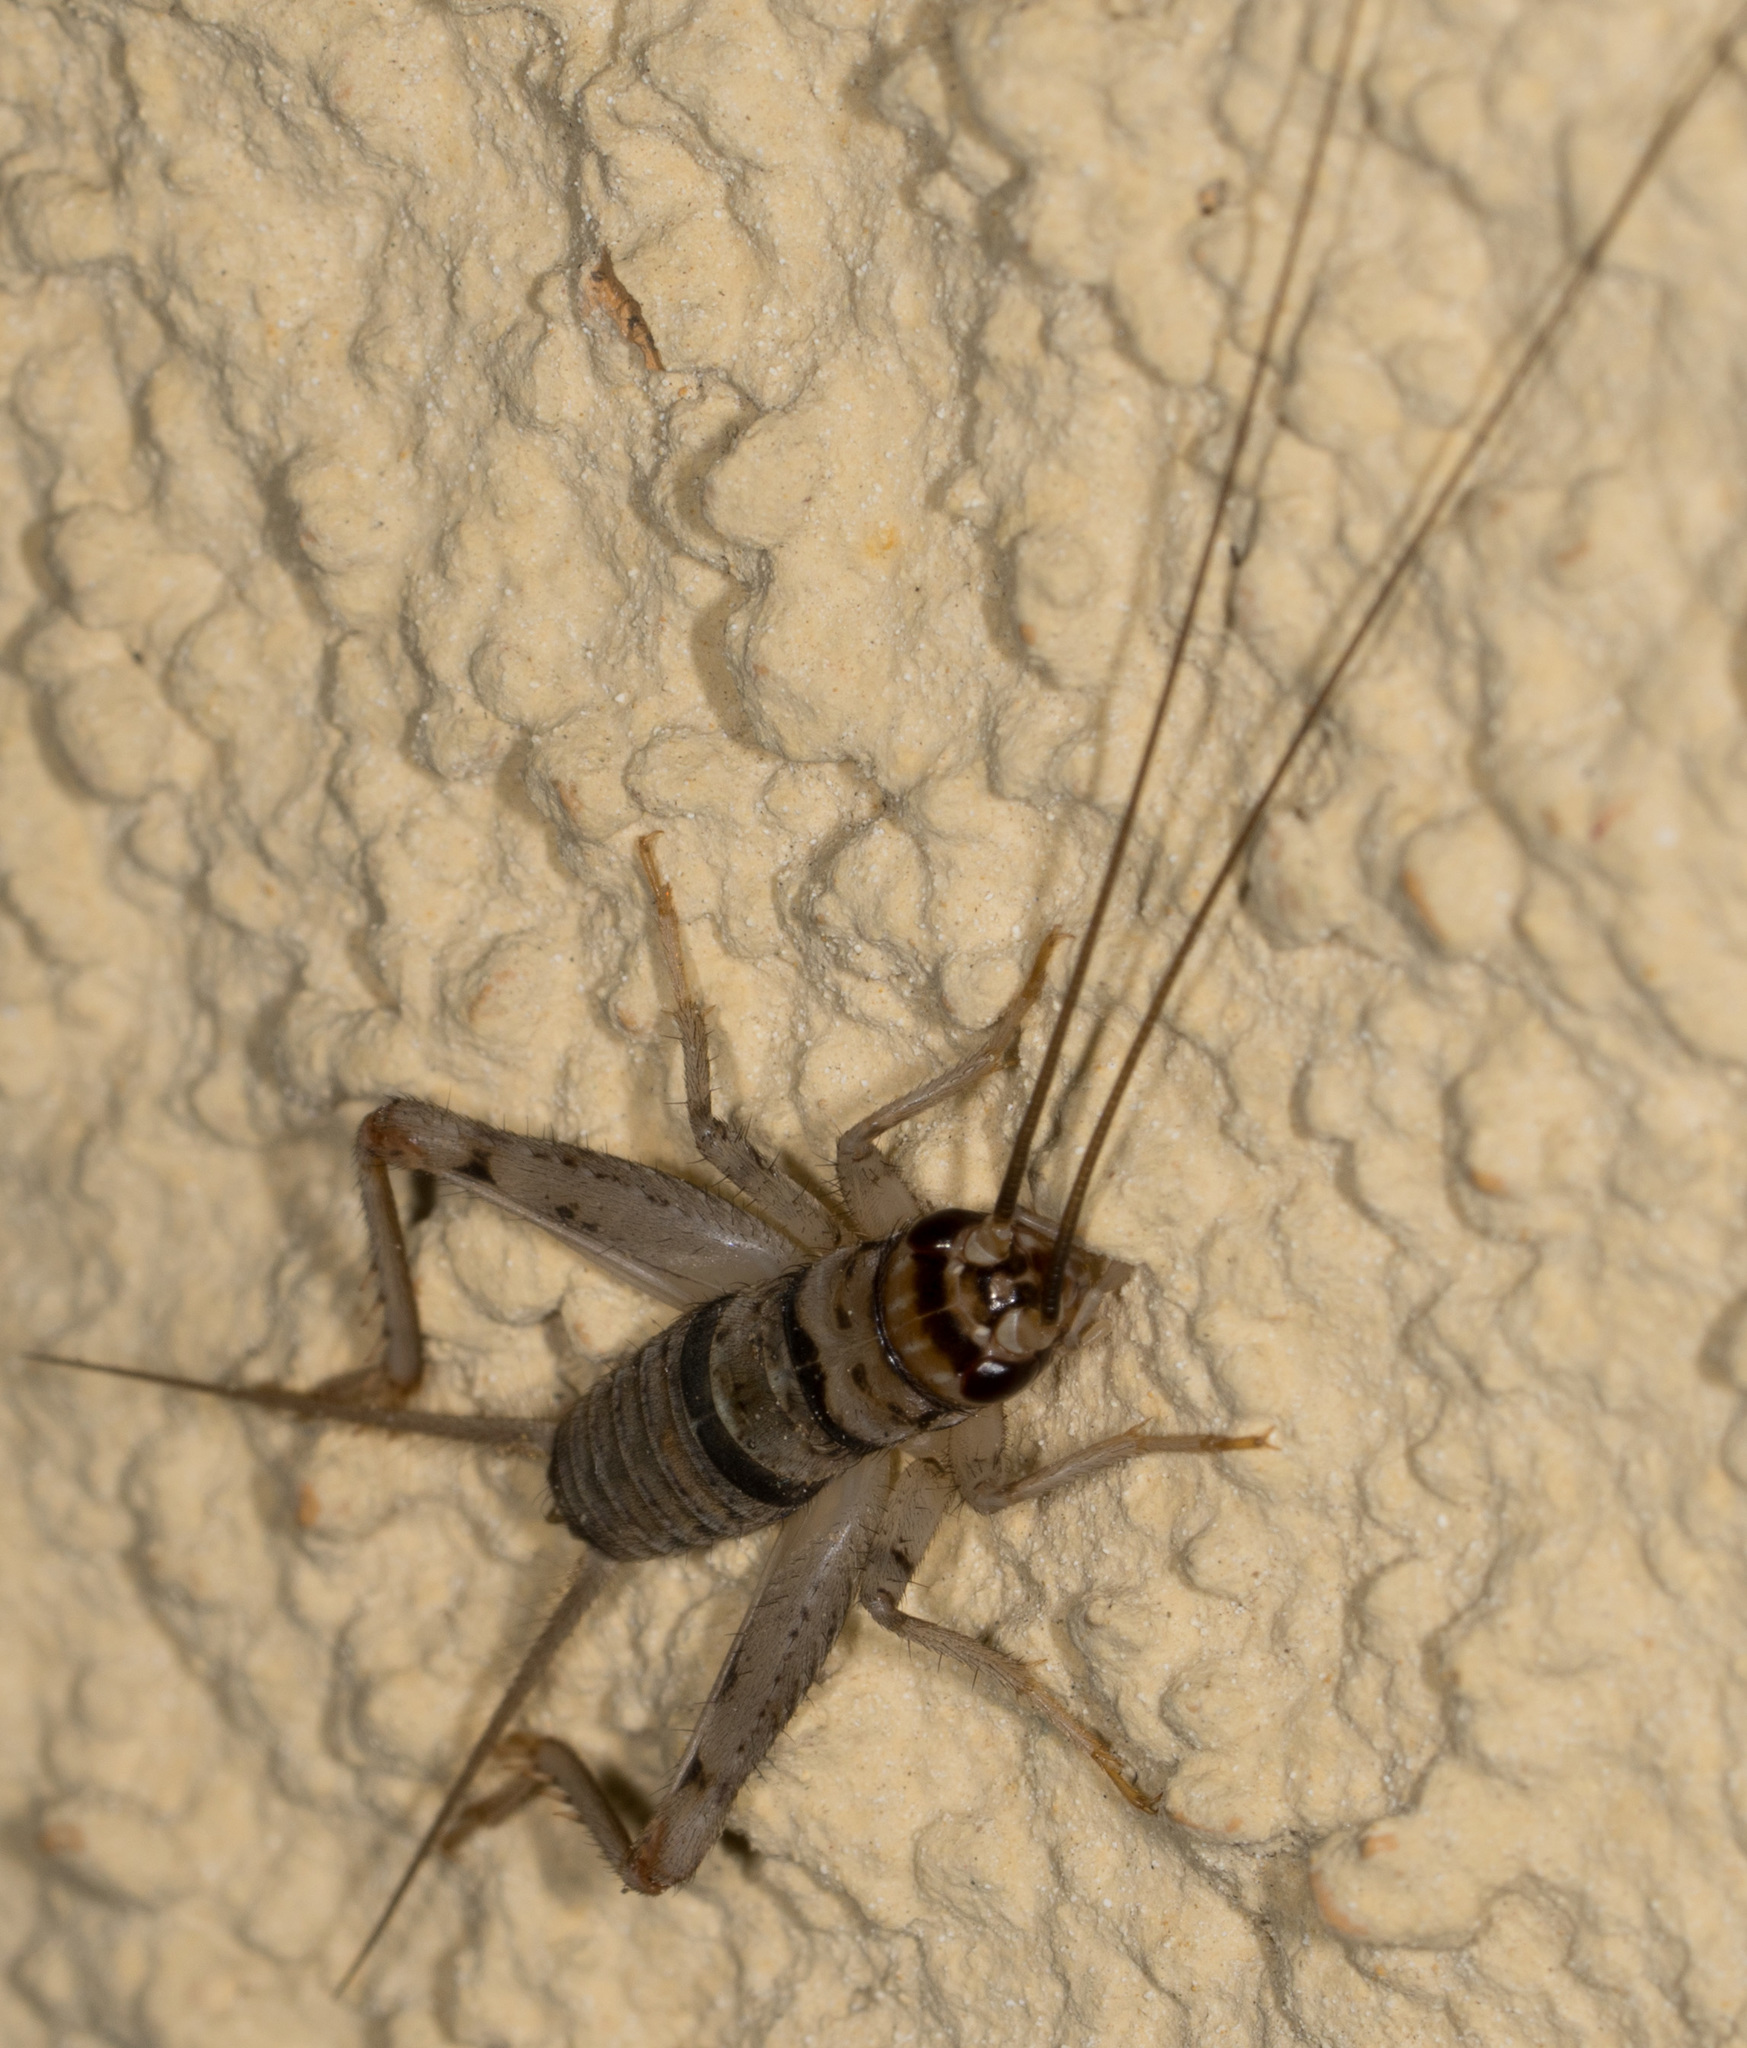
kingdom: Animalia
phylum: Arthropoda
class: Insecta
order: Orthoptera
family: Gryllidae
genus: Gryllodes
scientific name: Gryllodes sigillatus
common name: Tropical house cricket
